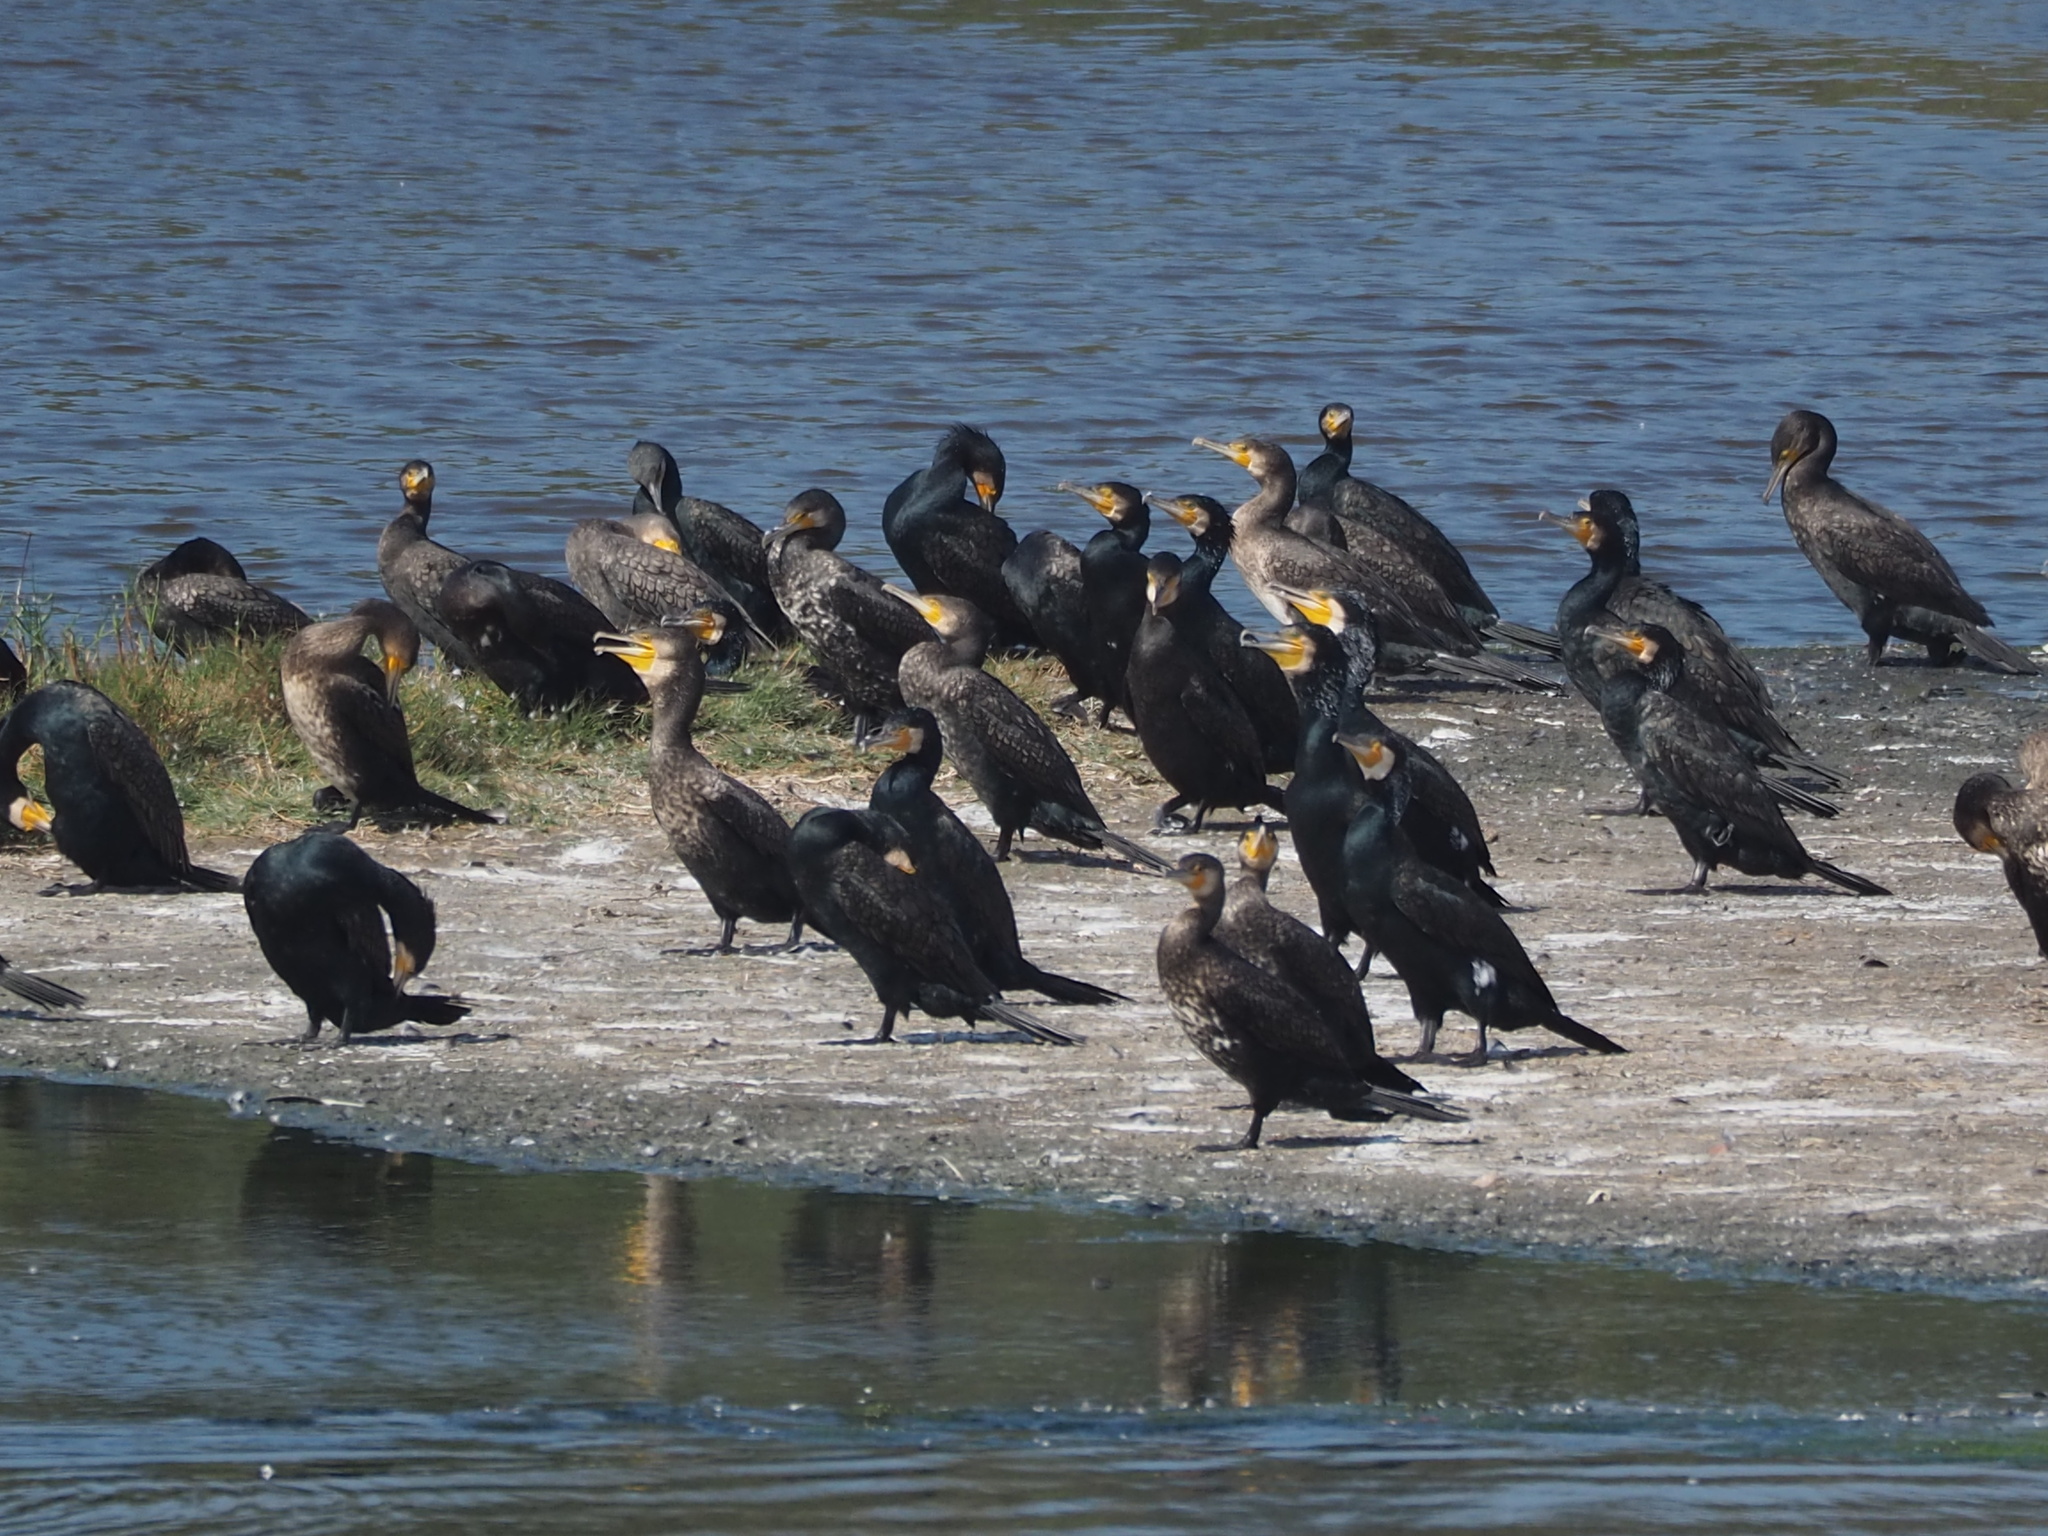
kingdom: Animalia
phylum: Chordata
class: Aves
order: Suliformes
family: Phalacrocoracidae
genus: Phalacrocorax
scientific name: Phalacrocorax carbo
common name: Great cormorant
